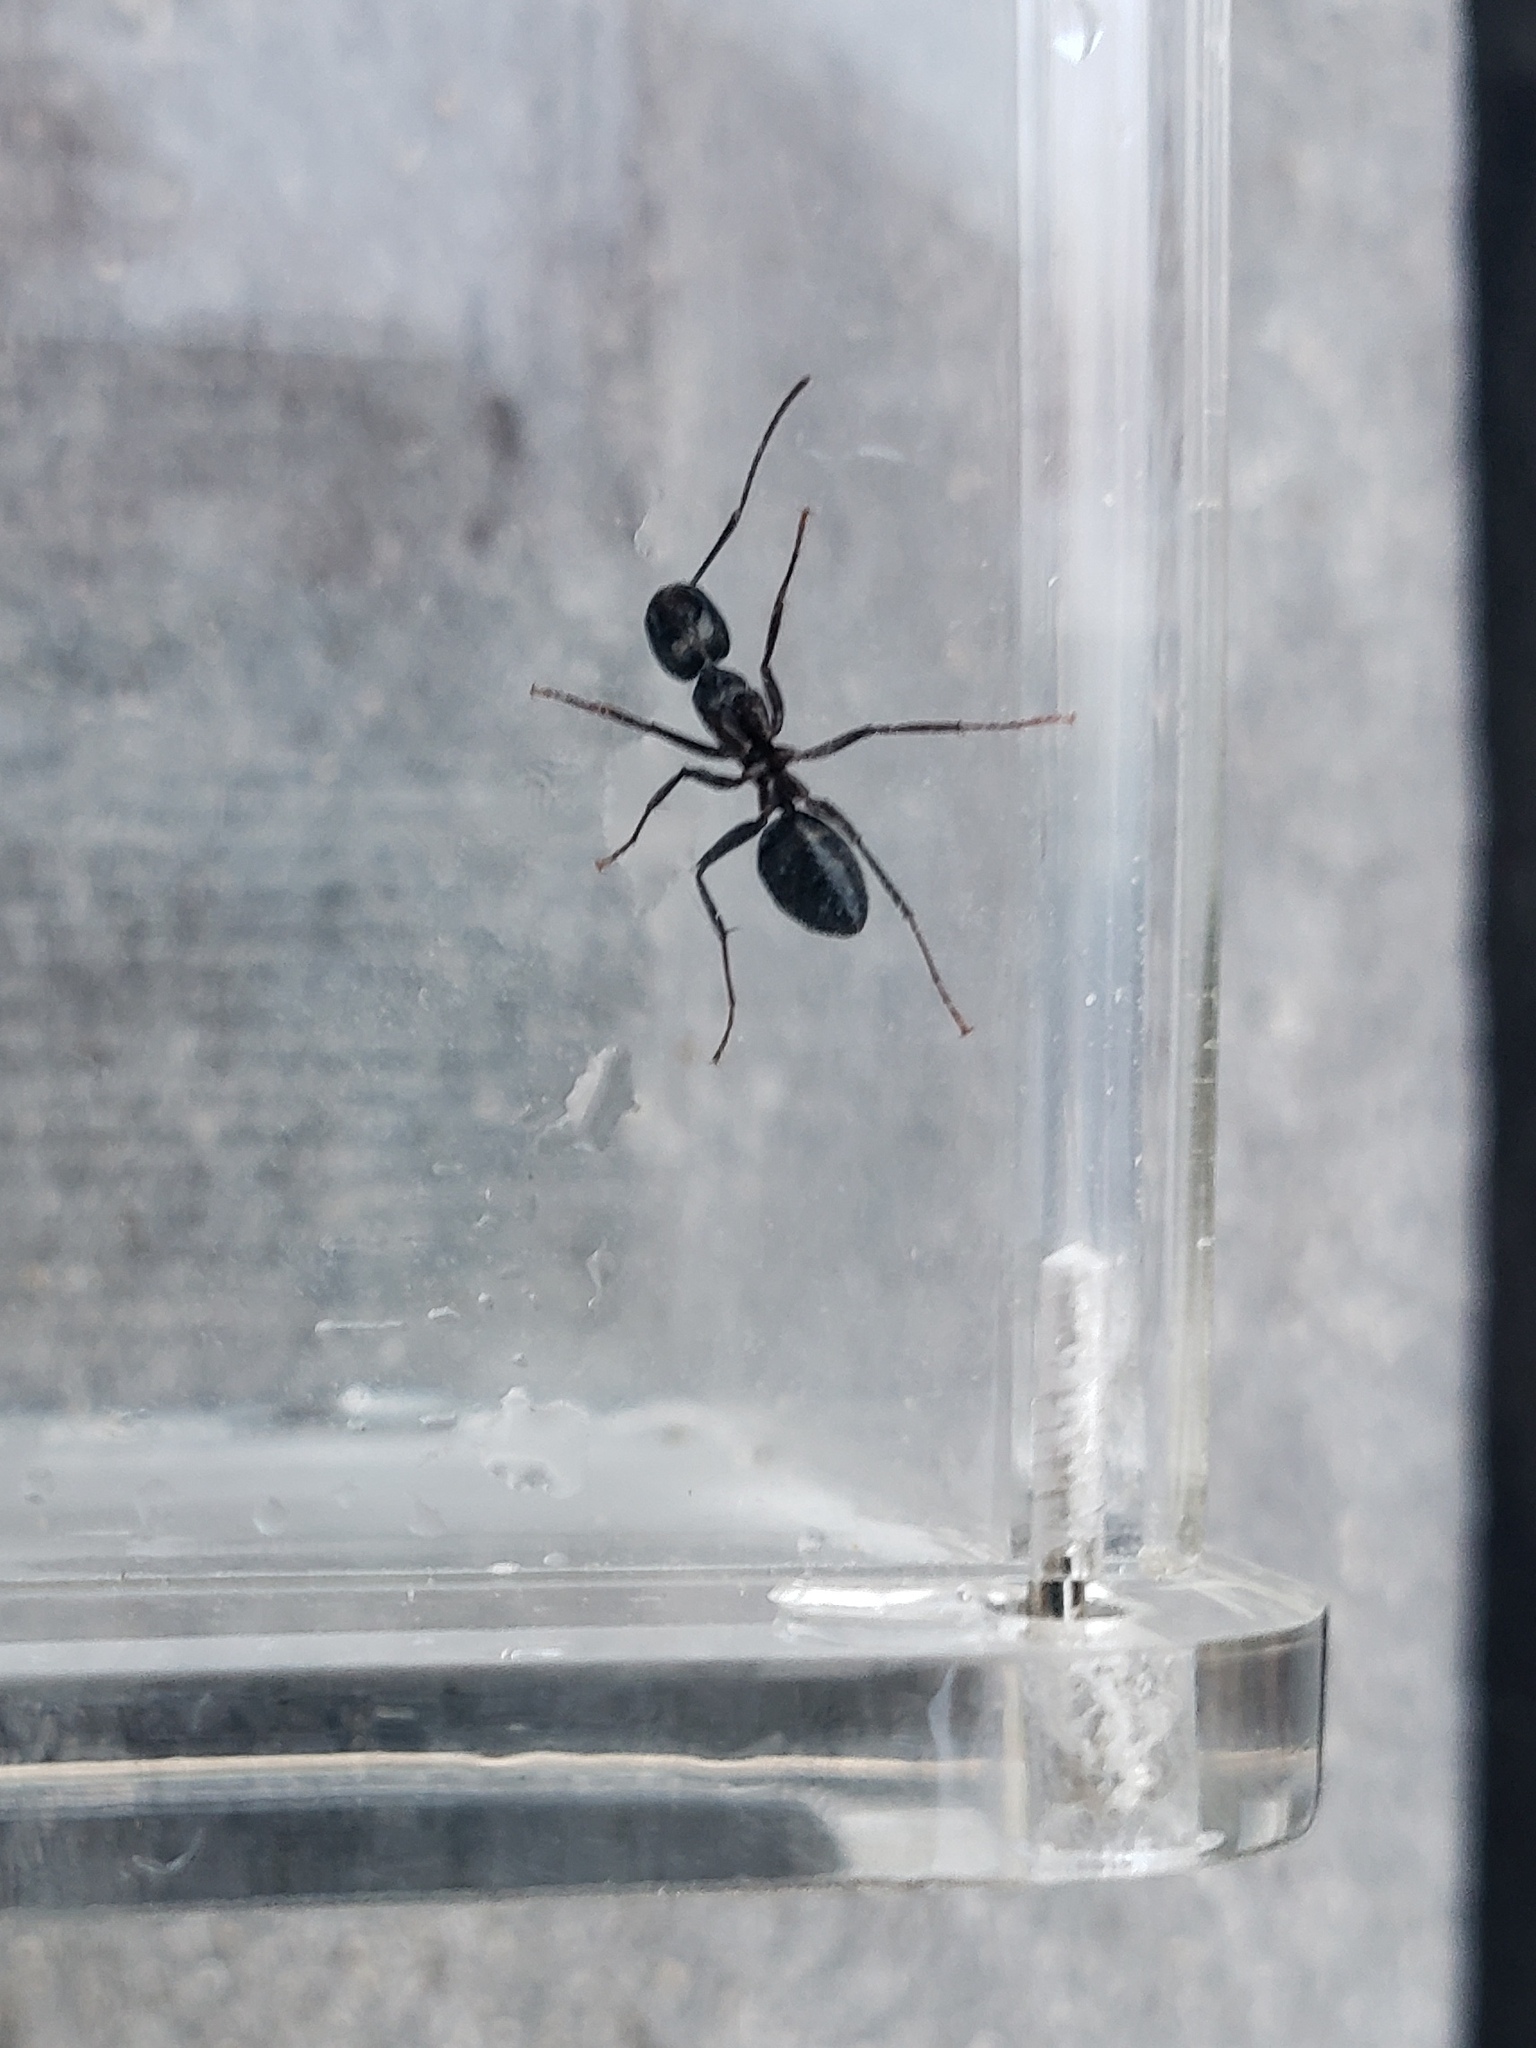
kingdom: Animalia
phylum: Arthropoda
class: Insecta
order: Hymenoptera
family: Formicidae
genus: Camponotus
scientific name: Camponotus pennsylvanicus
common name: Black carpenter ant
